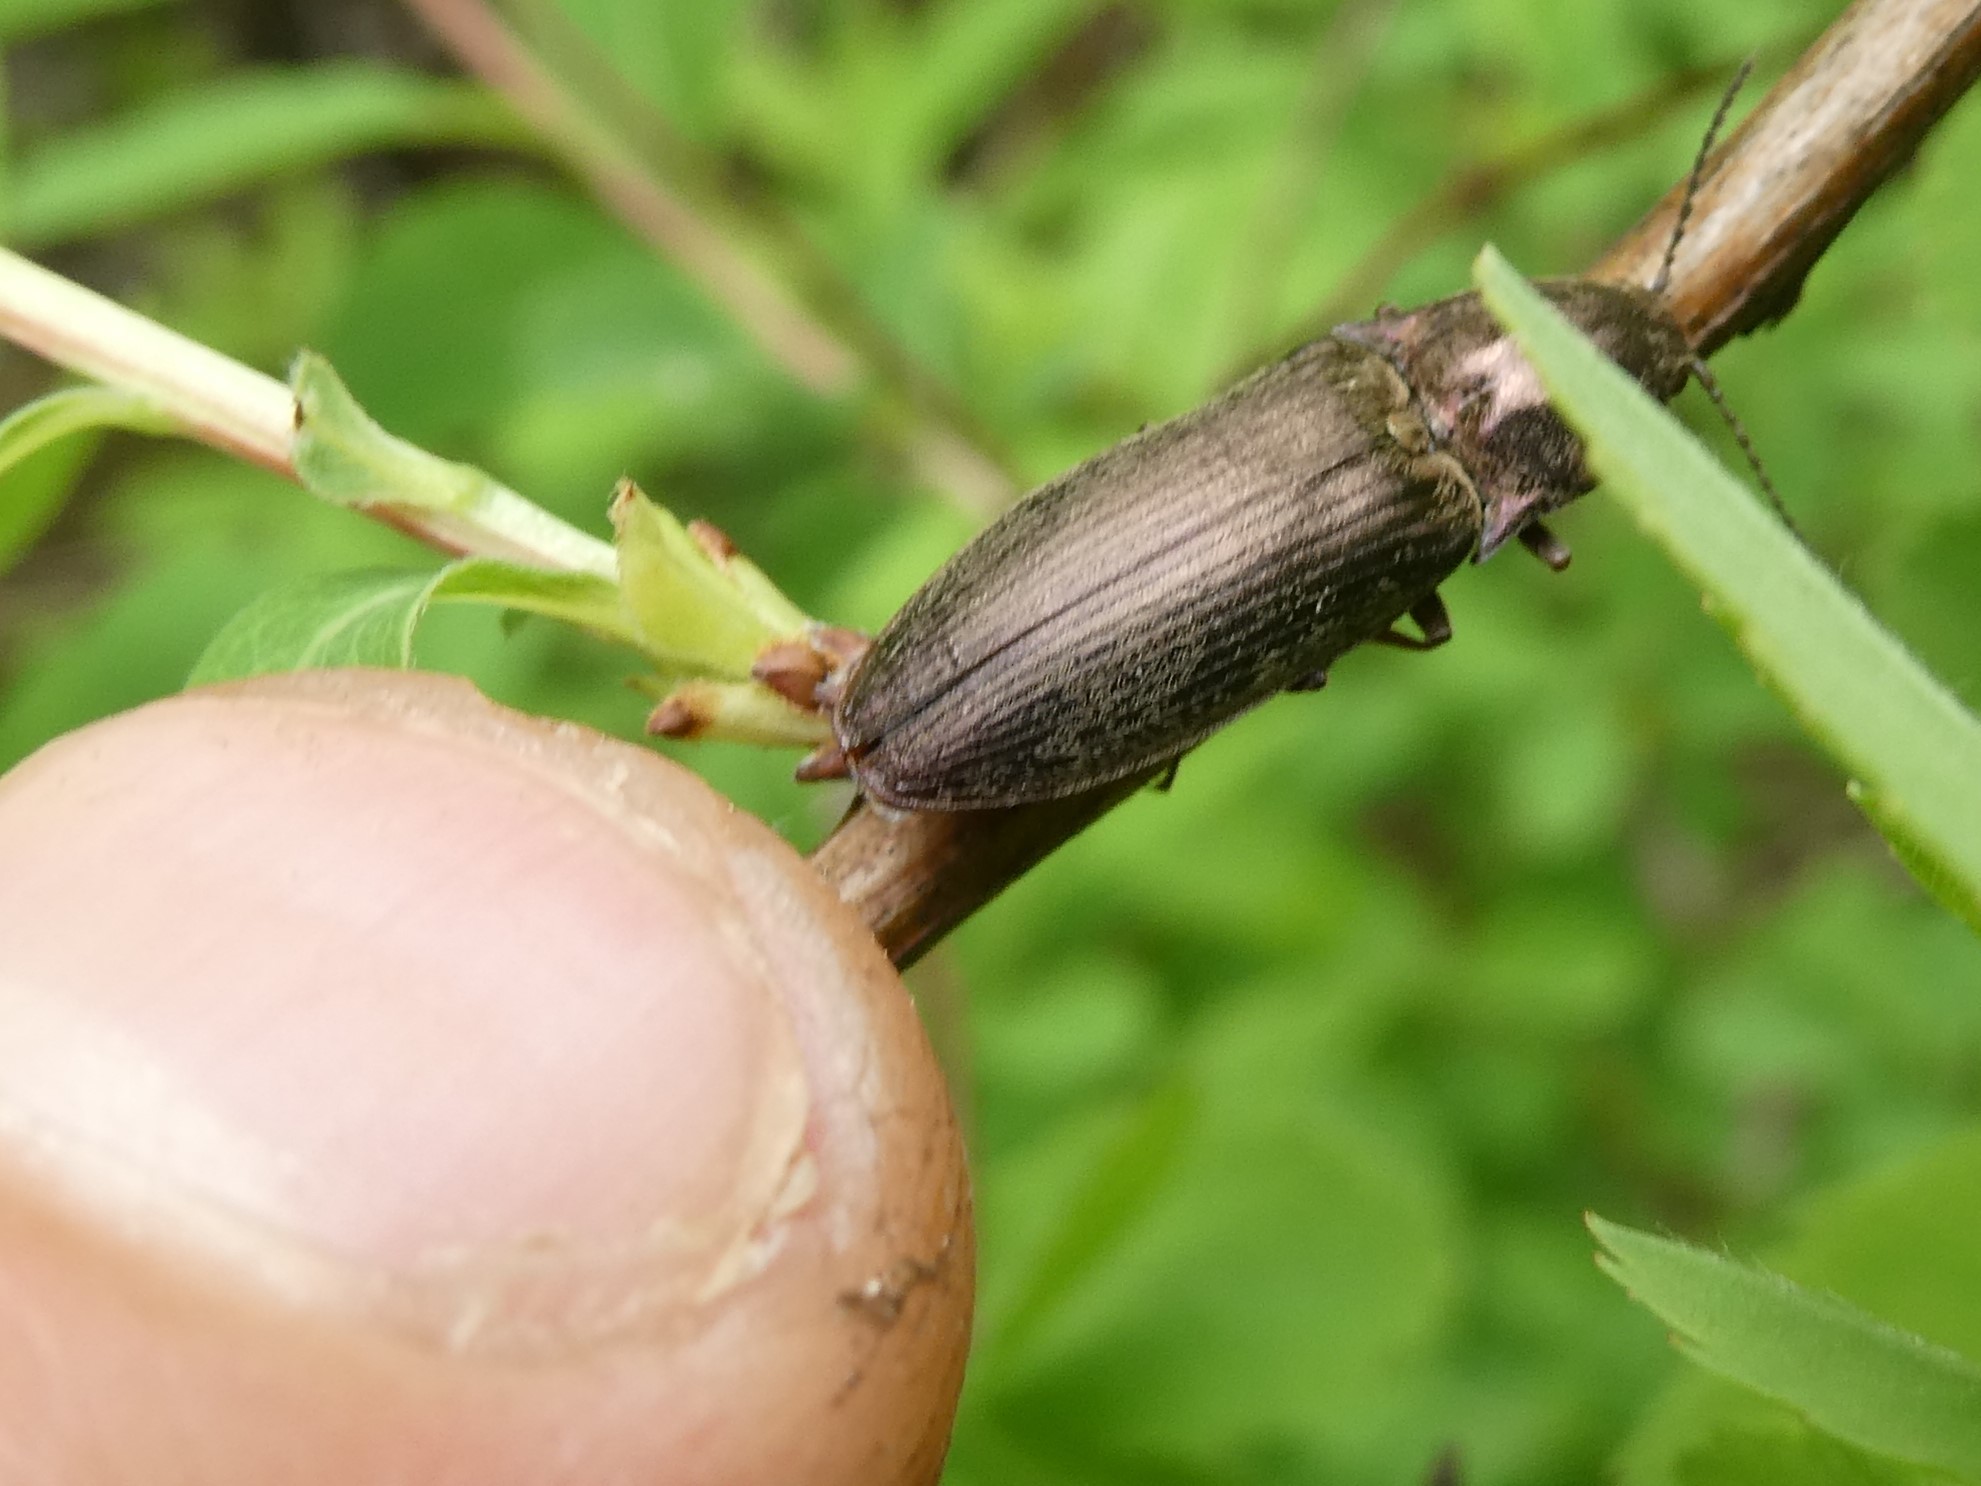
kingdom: Animalia
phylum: Arthropoda
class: Insecta
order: Coleoptera
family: Elateridae
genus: Actenicerus
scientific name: Actenicerus cuprascens
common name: Marsh click beetle
